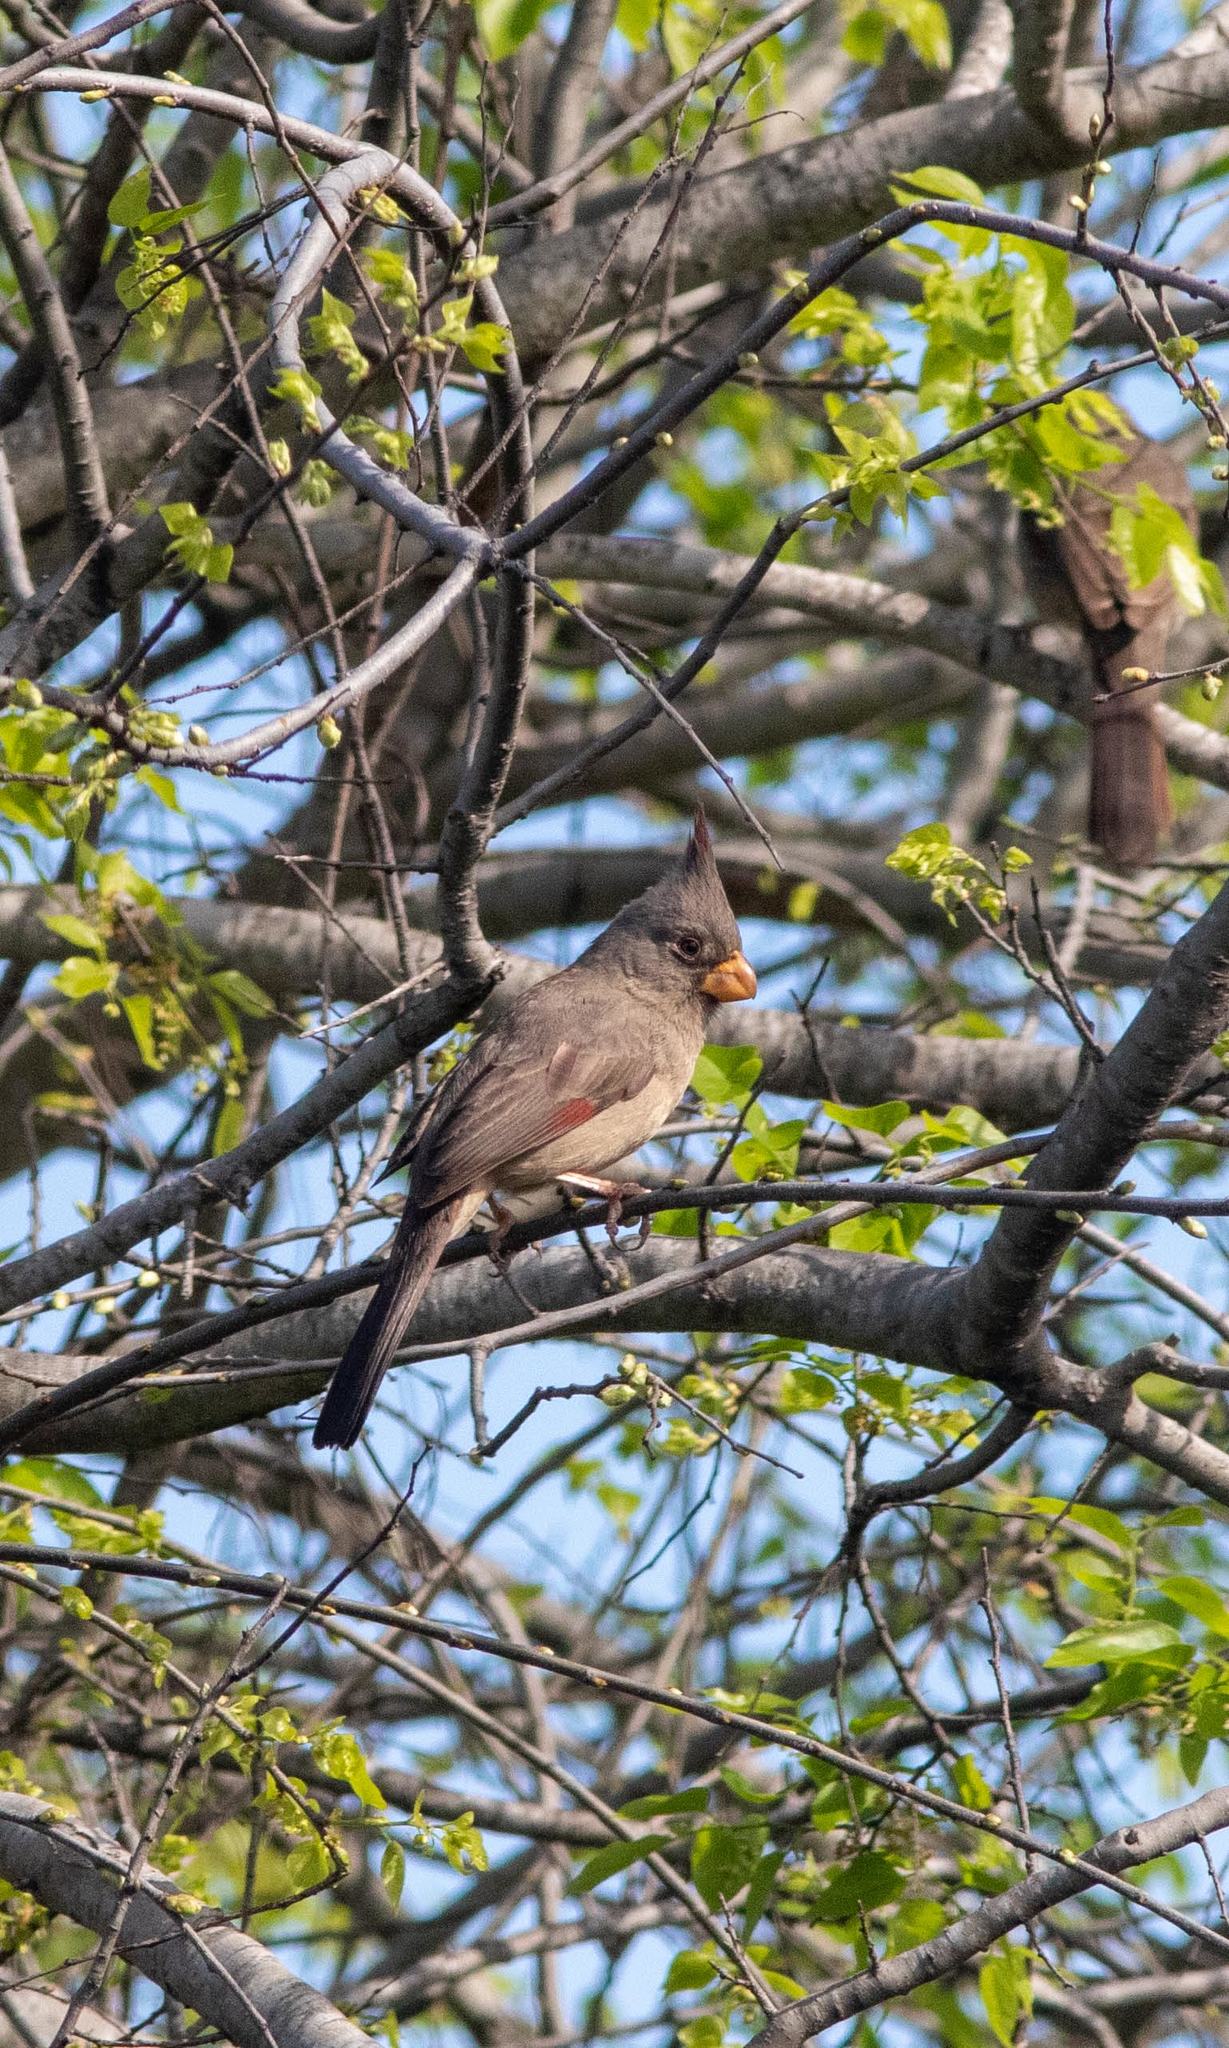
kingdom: Animalia
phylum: Chordata
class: Aves
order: Passeriformes
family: Cardinalidae
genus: Cardinalis
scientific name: Cardinalis sinuatus
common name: Pyrrhuloxia
